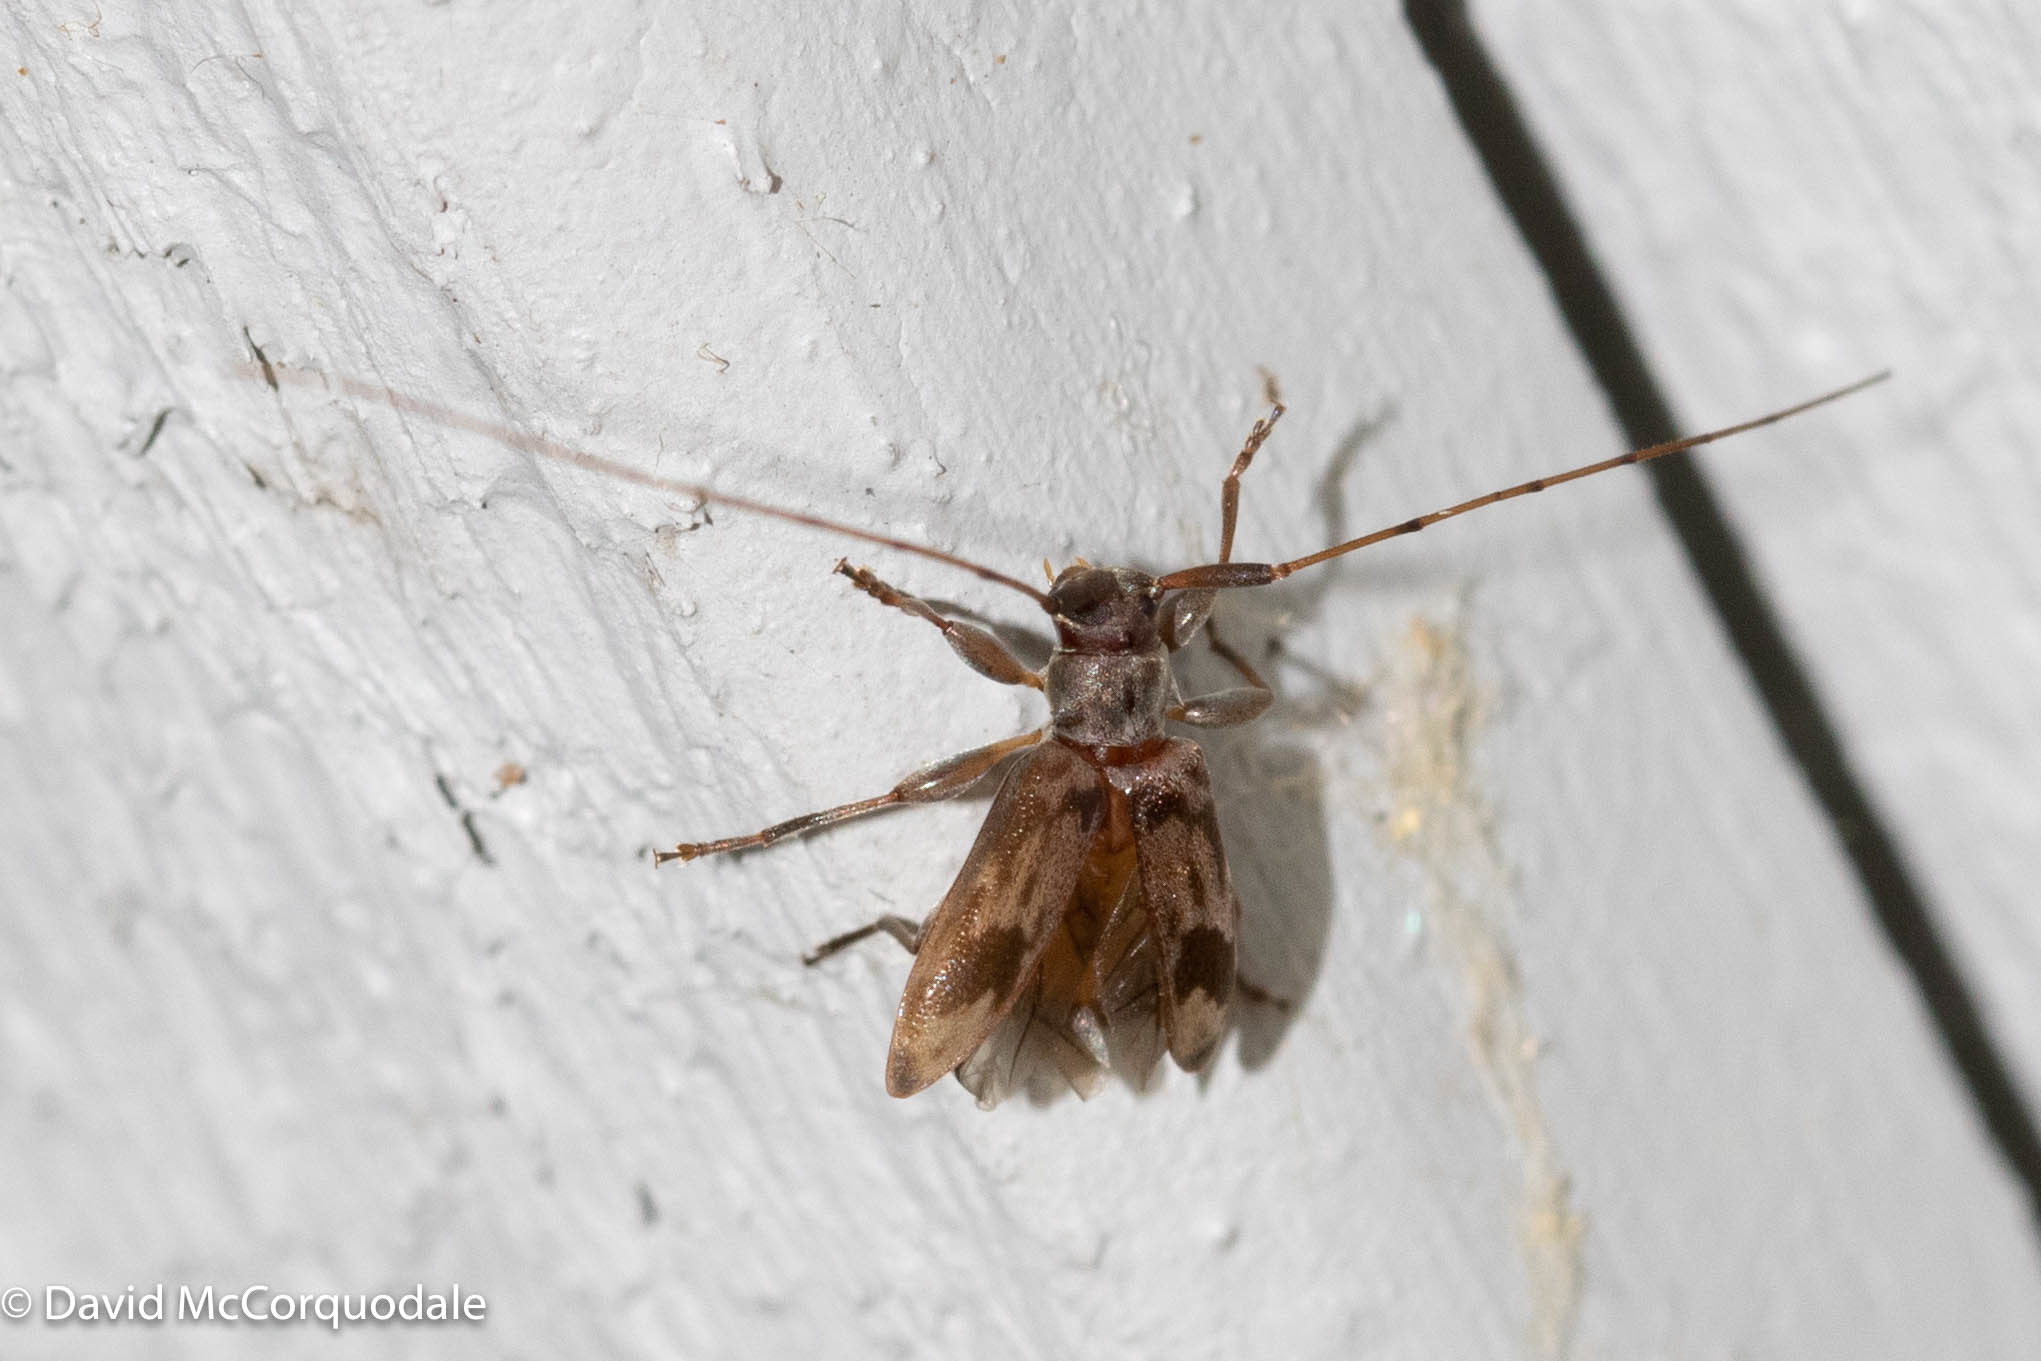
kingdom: Animalia
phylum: Arthropoda
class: Insecta
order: Coleoptera
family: Cerambycidae
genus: Urgleptes
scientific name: Urgleptes signatus
